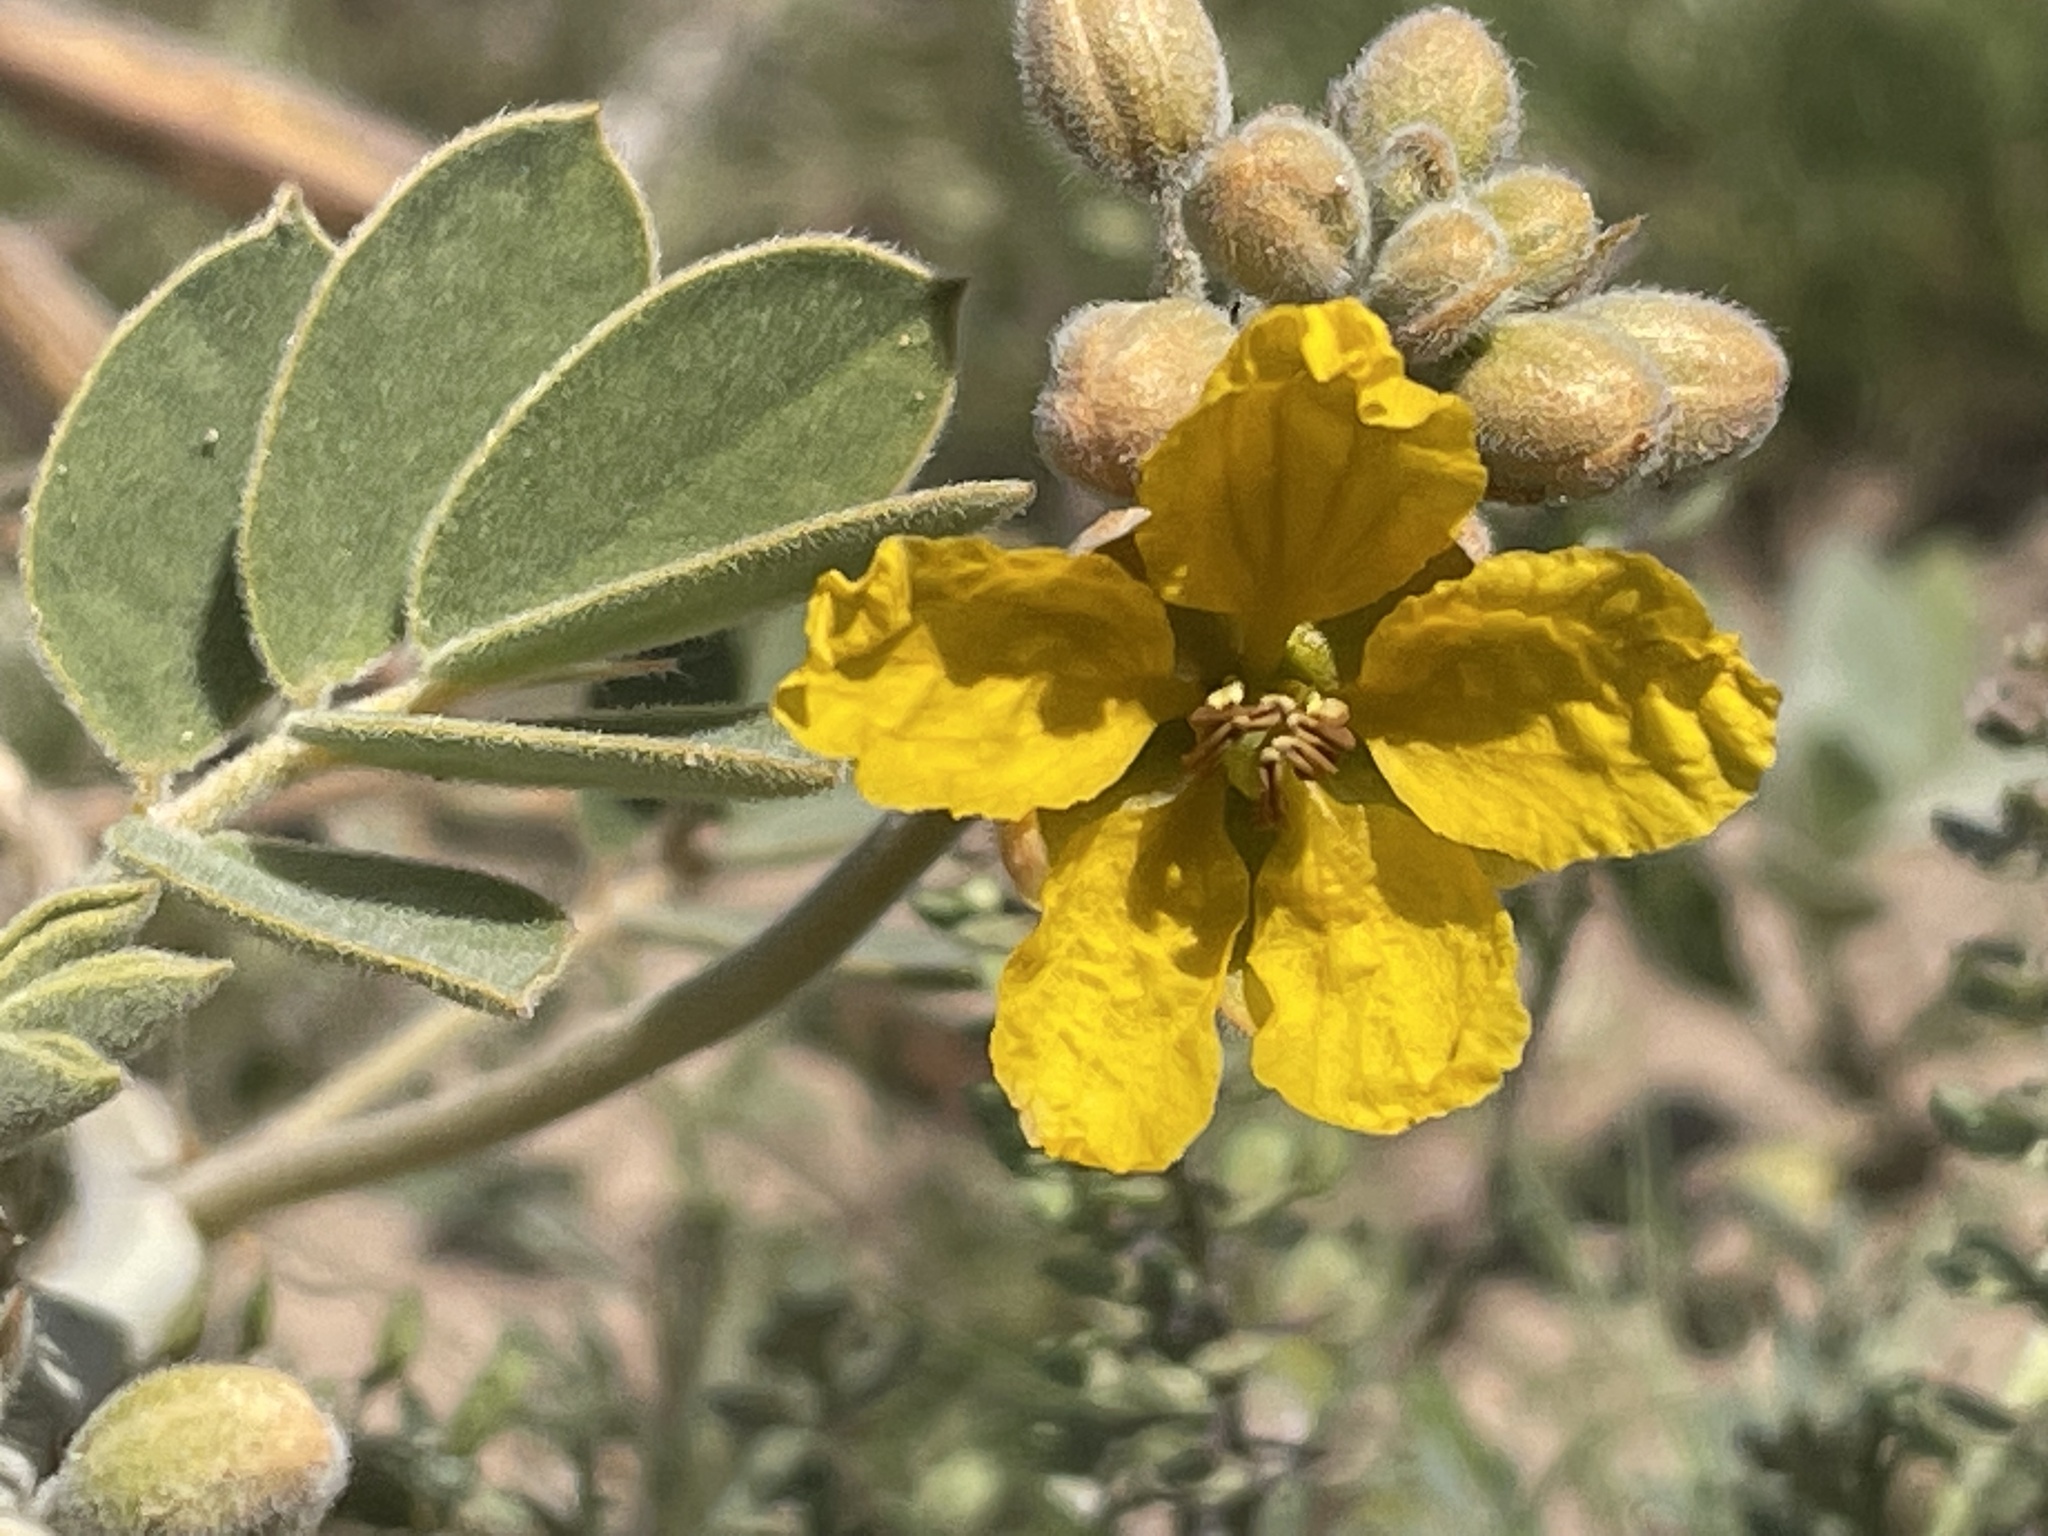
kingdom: Plantae
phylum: Tracheophyta
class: Magnoliopsida
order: Fabales
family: Fabaceae
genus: Senna
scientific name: Senna covesii
